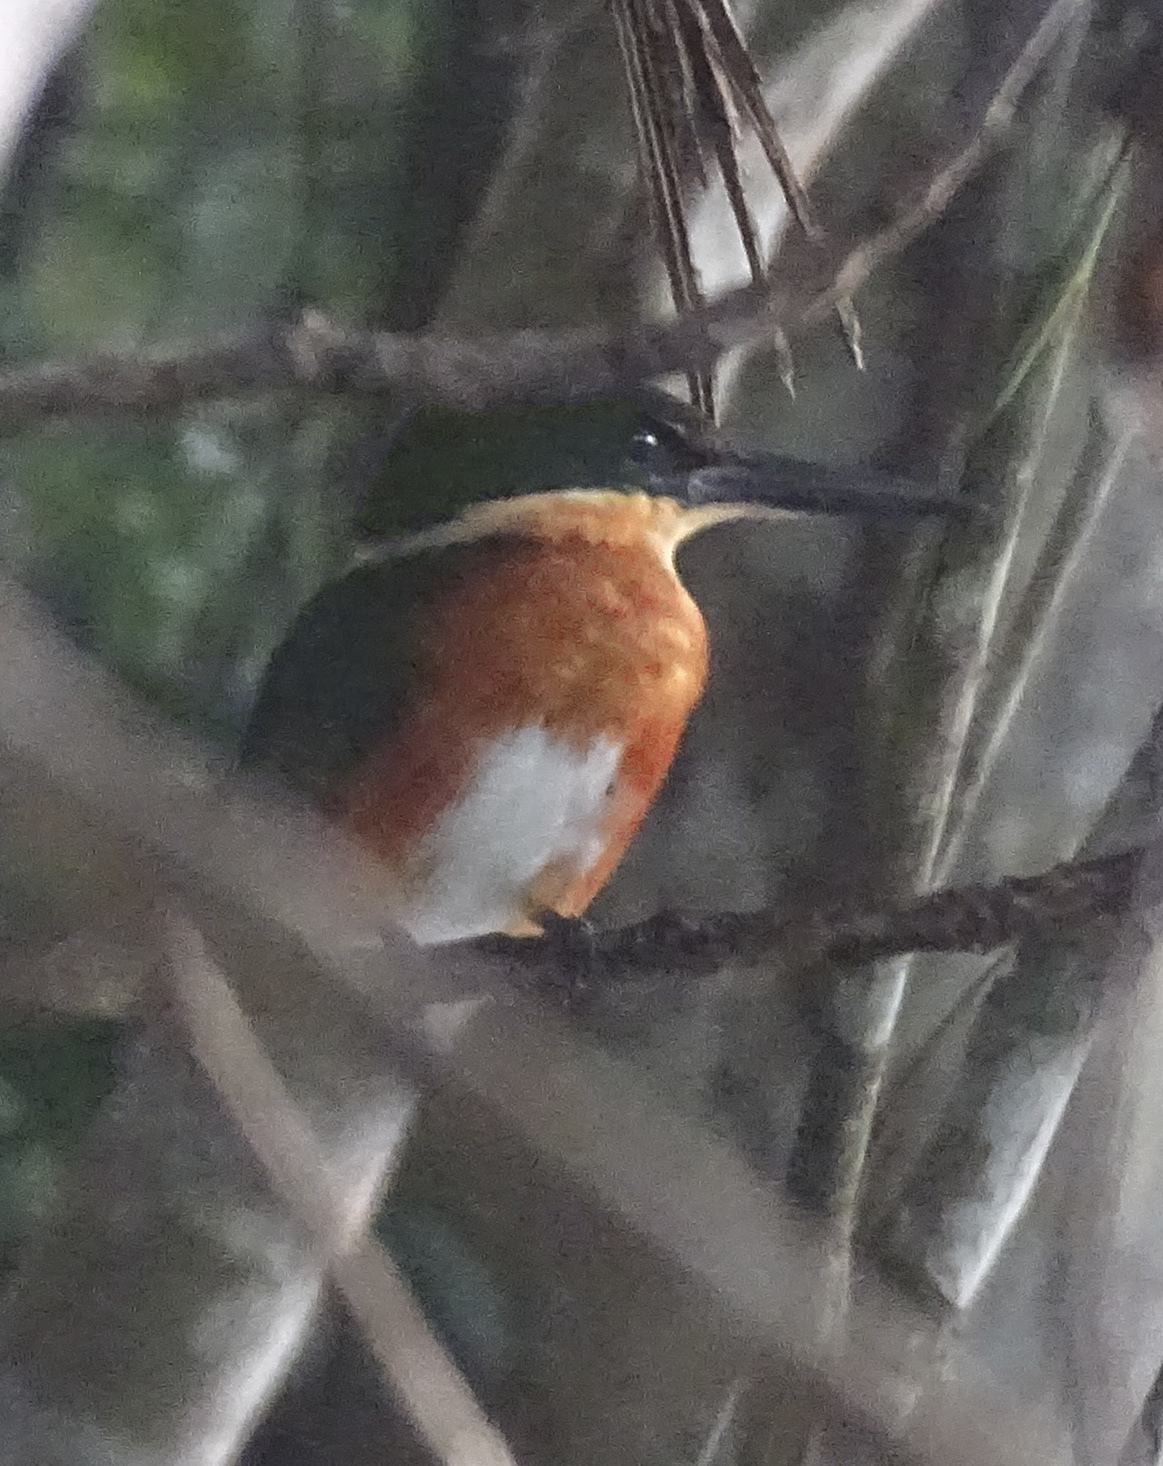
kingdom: Animalia
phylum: Chordata
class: Aves
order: Coraciiformes
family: Alcedinidae
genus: Chloroceryle
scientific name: Chloroceryle aenea
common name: American pygmy kingfisher
